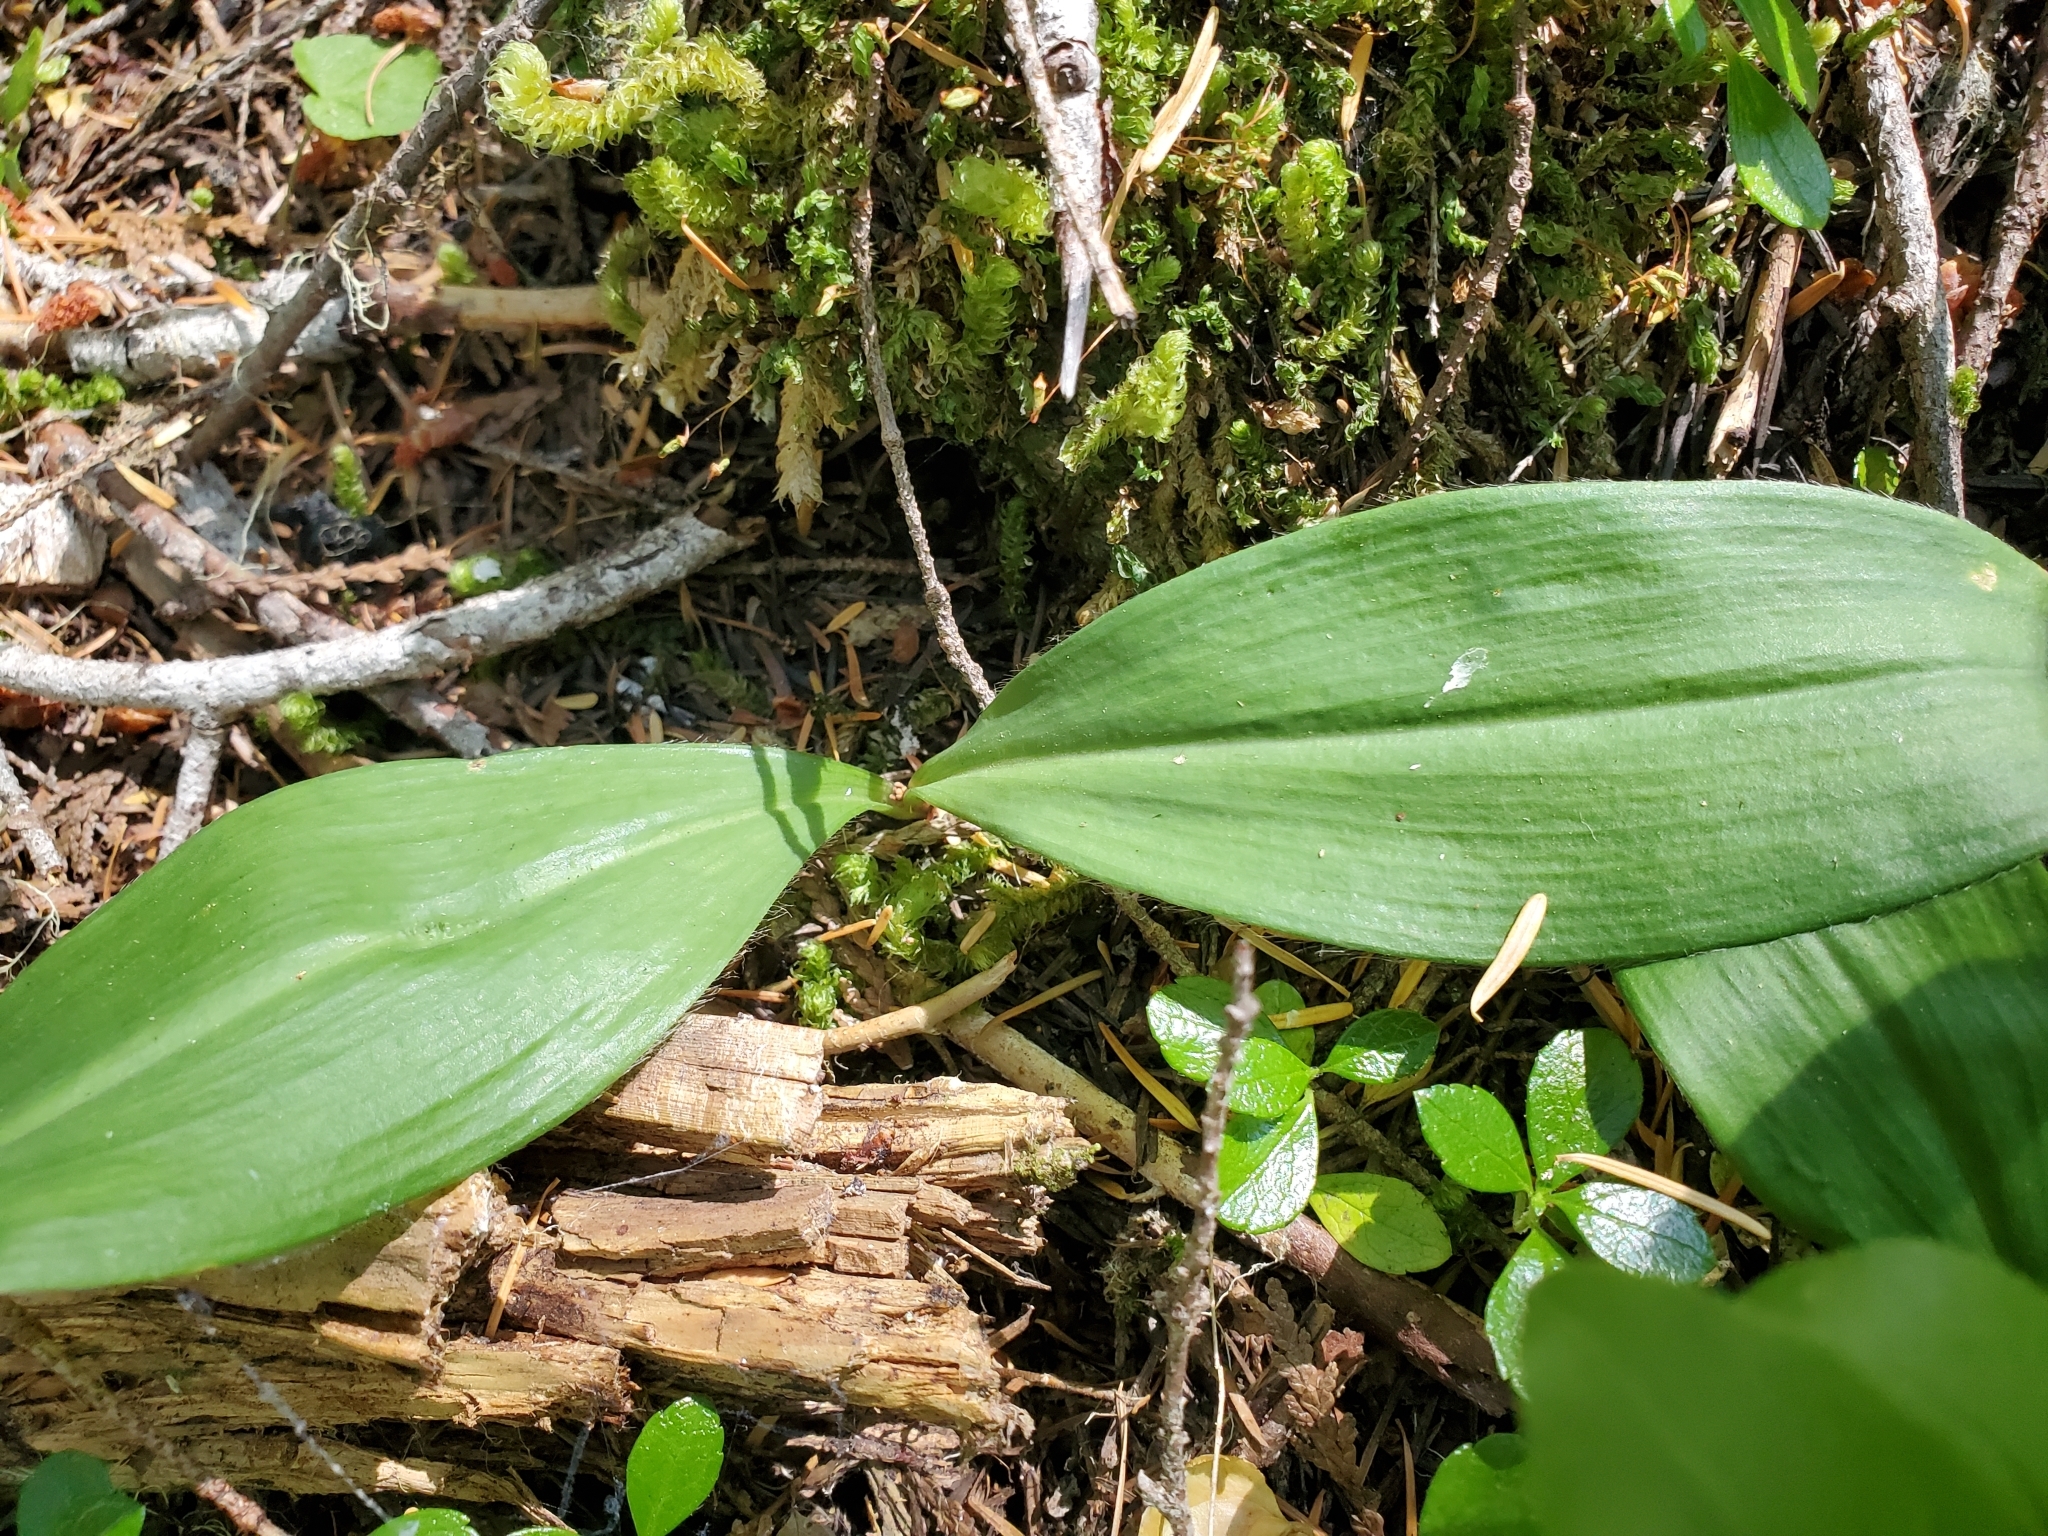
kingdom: Plantae
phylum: Tracheophyta
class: Liliopsida
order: Liliales
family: Liliaceae
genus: Clintonia
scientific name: Clintonia uniflora
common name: Queen's cup
